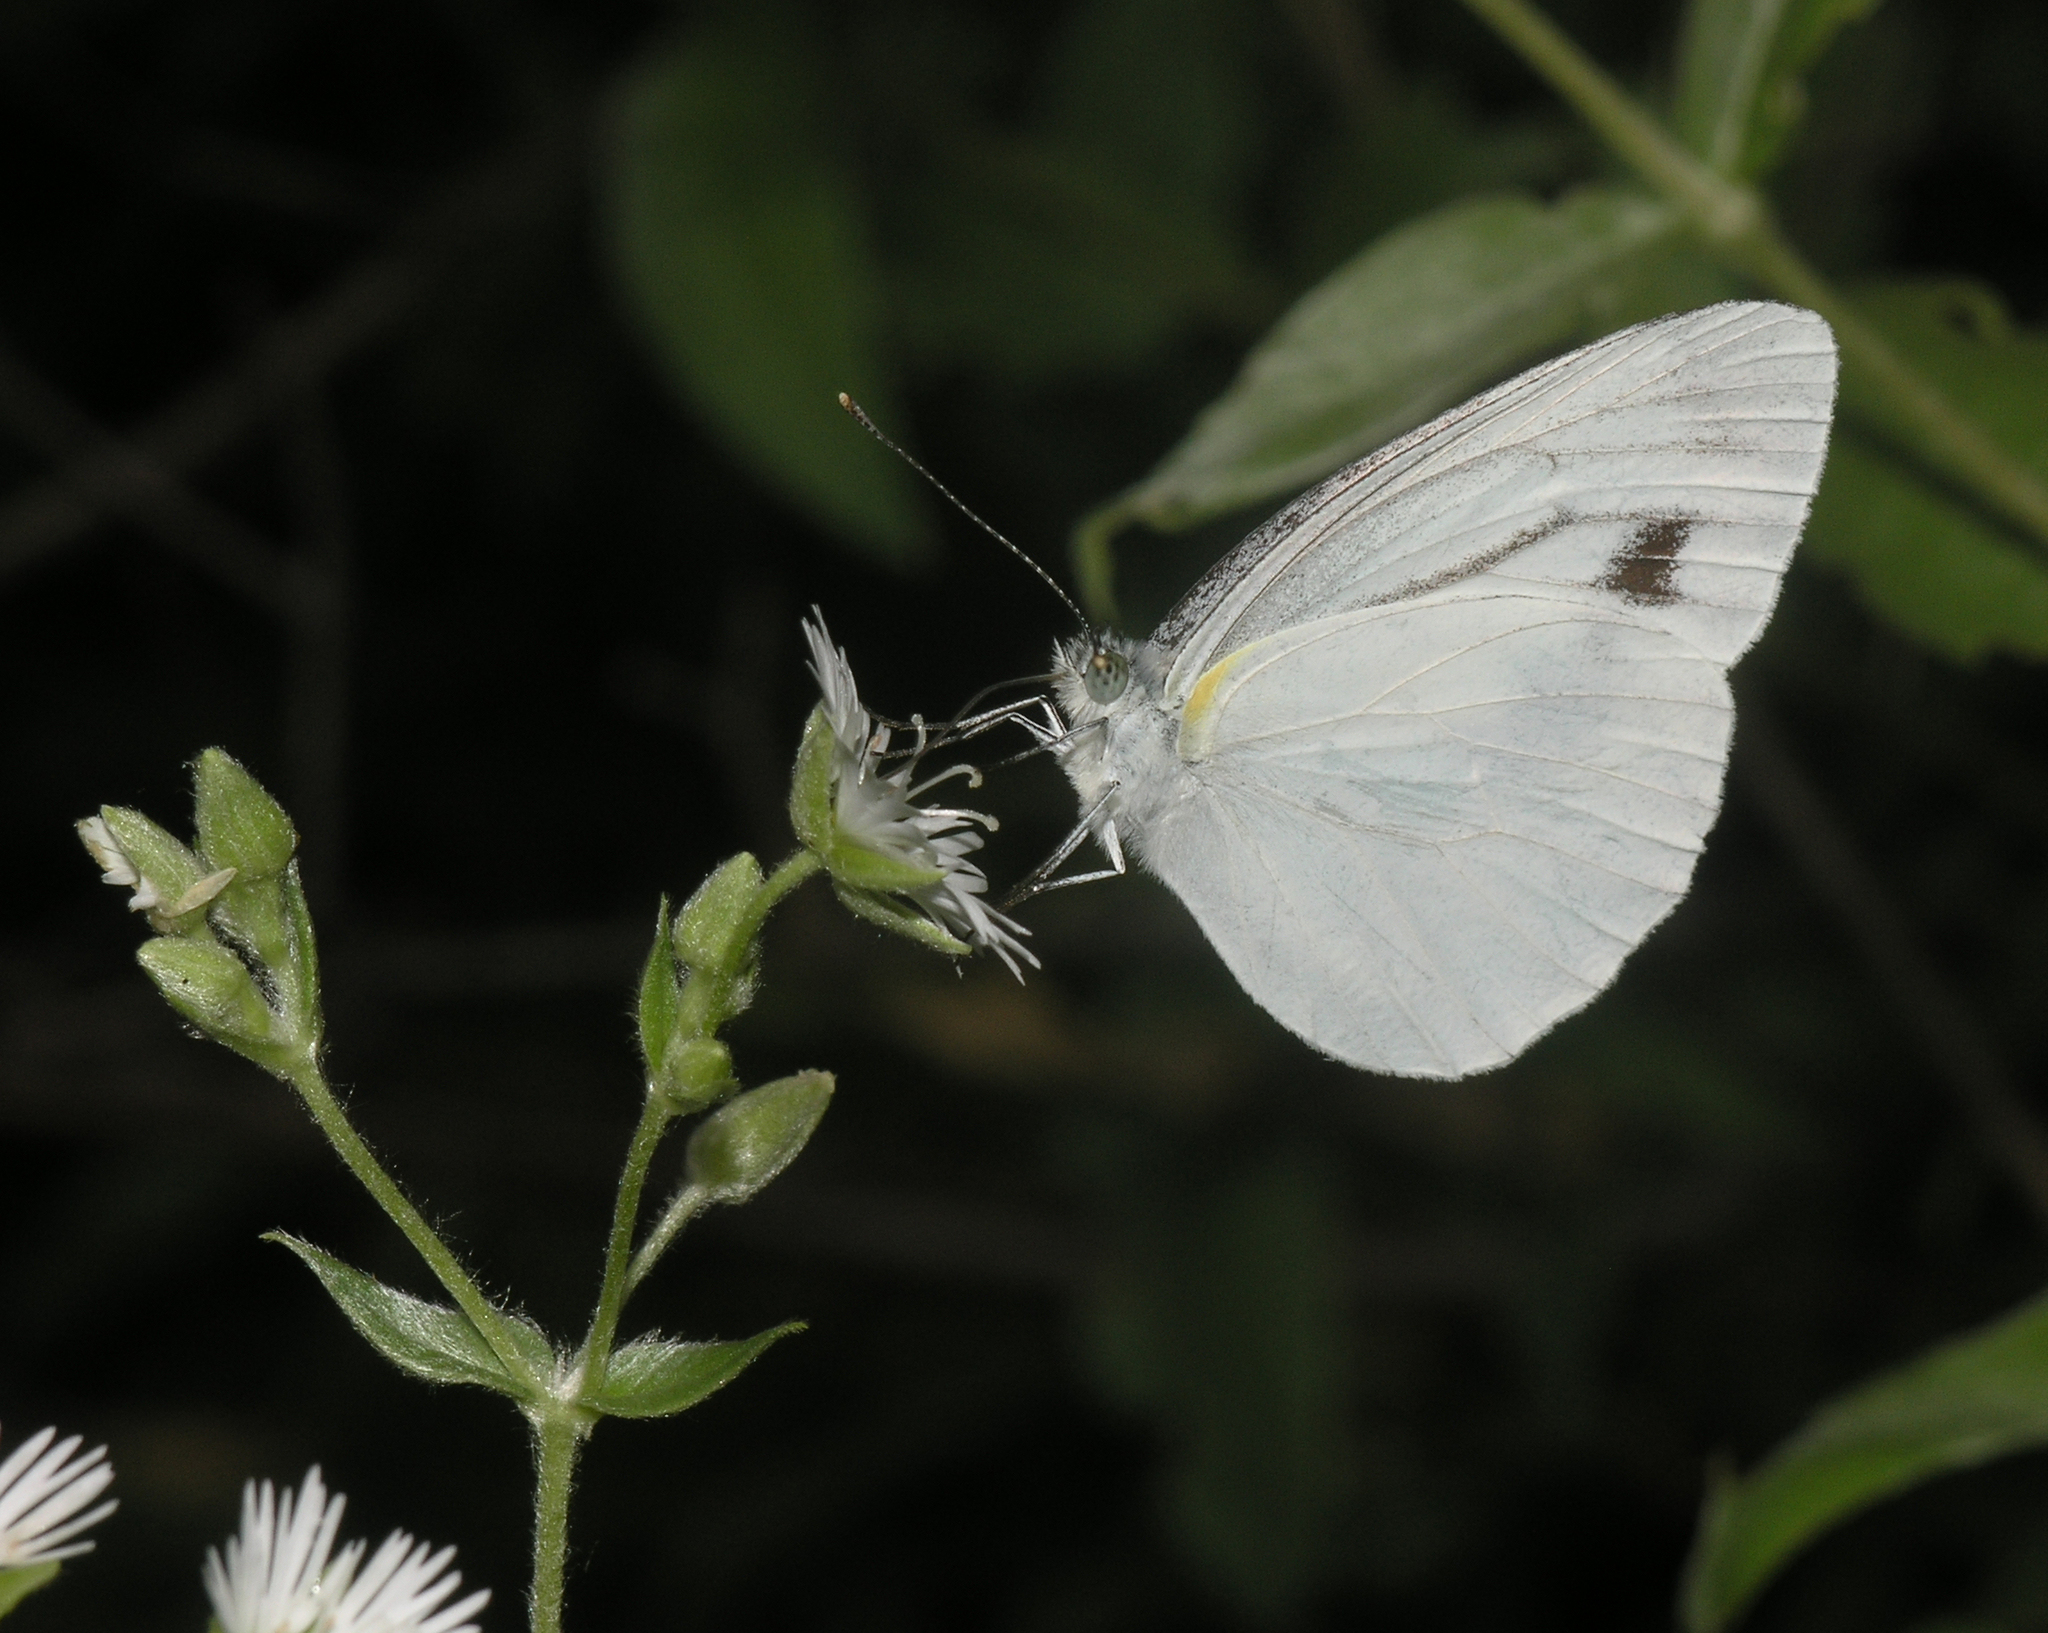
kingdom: Animalia
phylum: Arthropoda
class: Insecta
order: Lepidoptera
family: Pieridae
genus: Pieris
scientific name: Pieris melete
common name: Asian green-veined white
